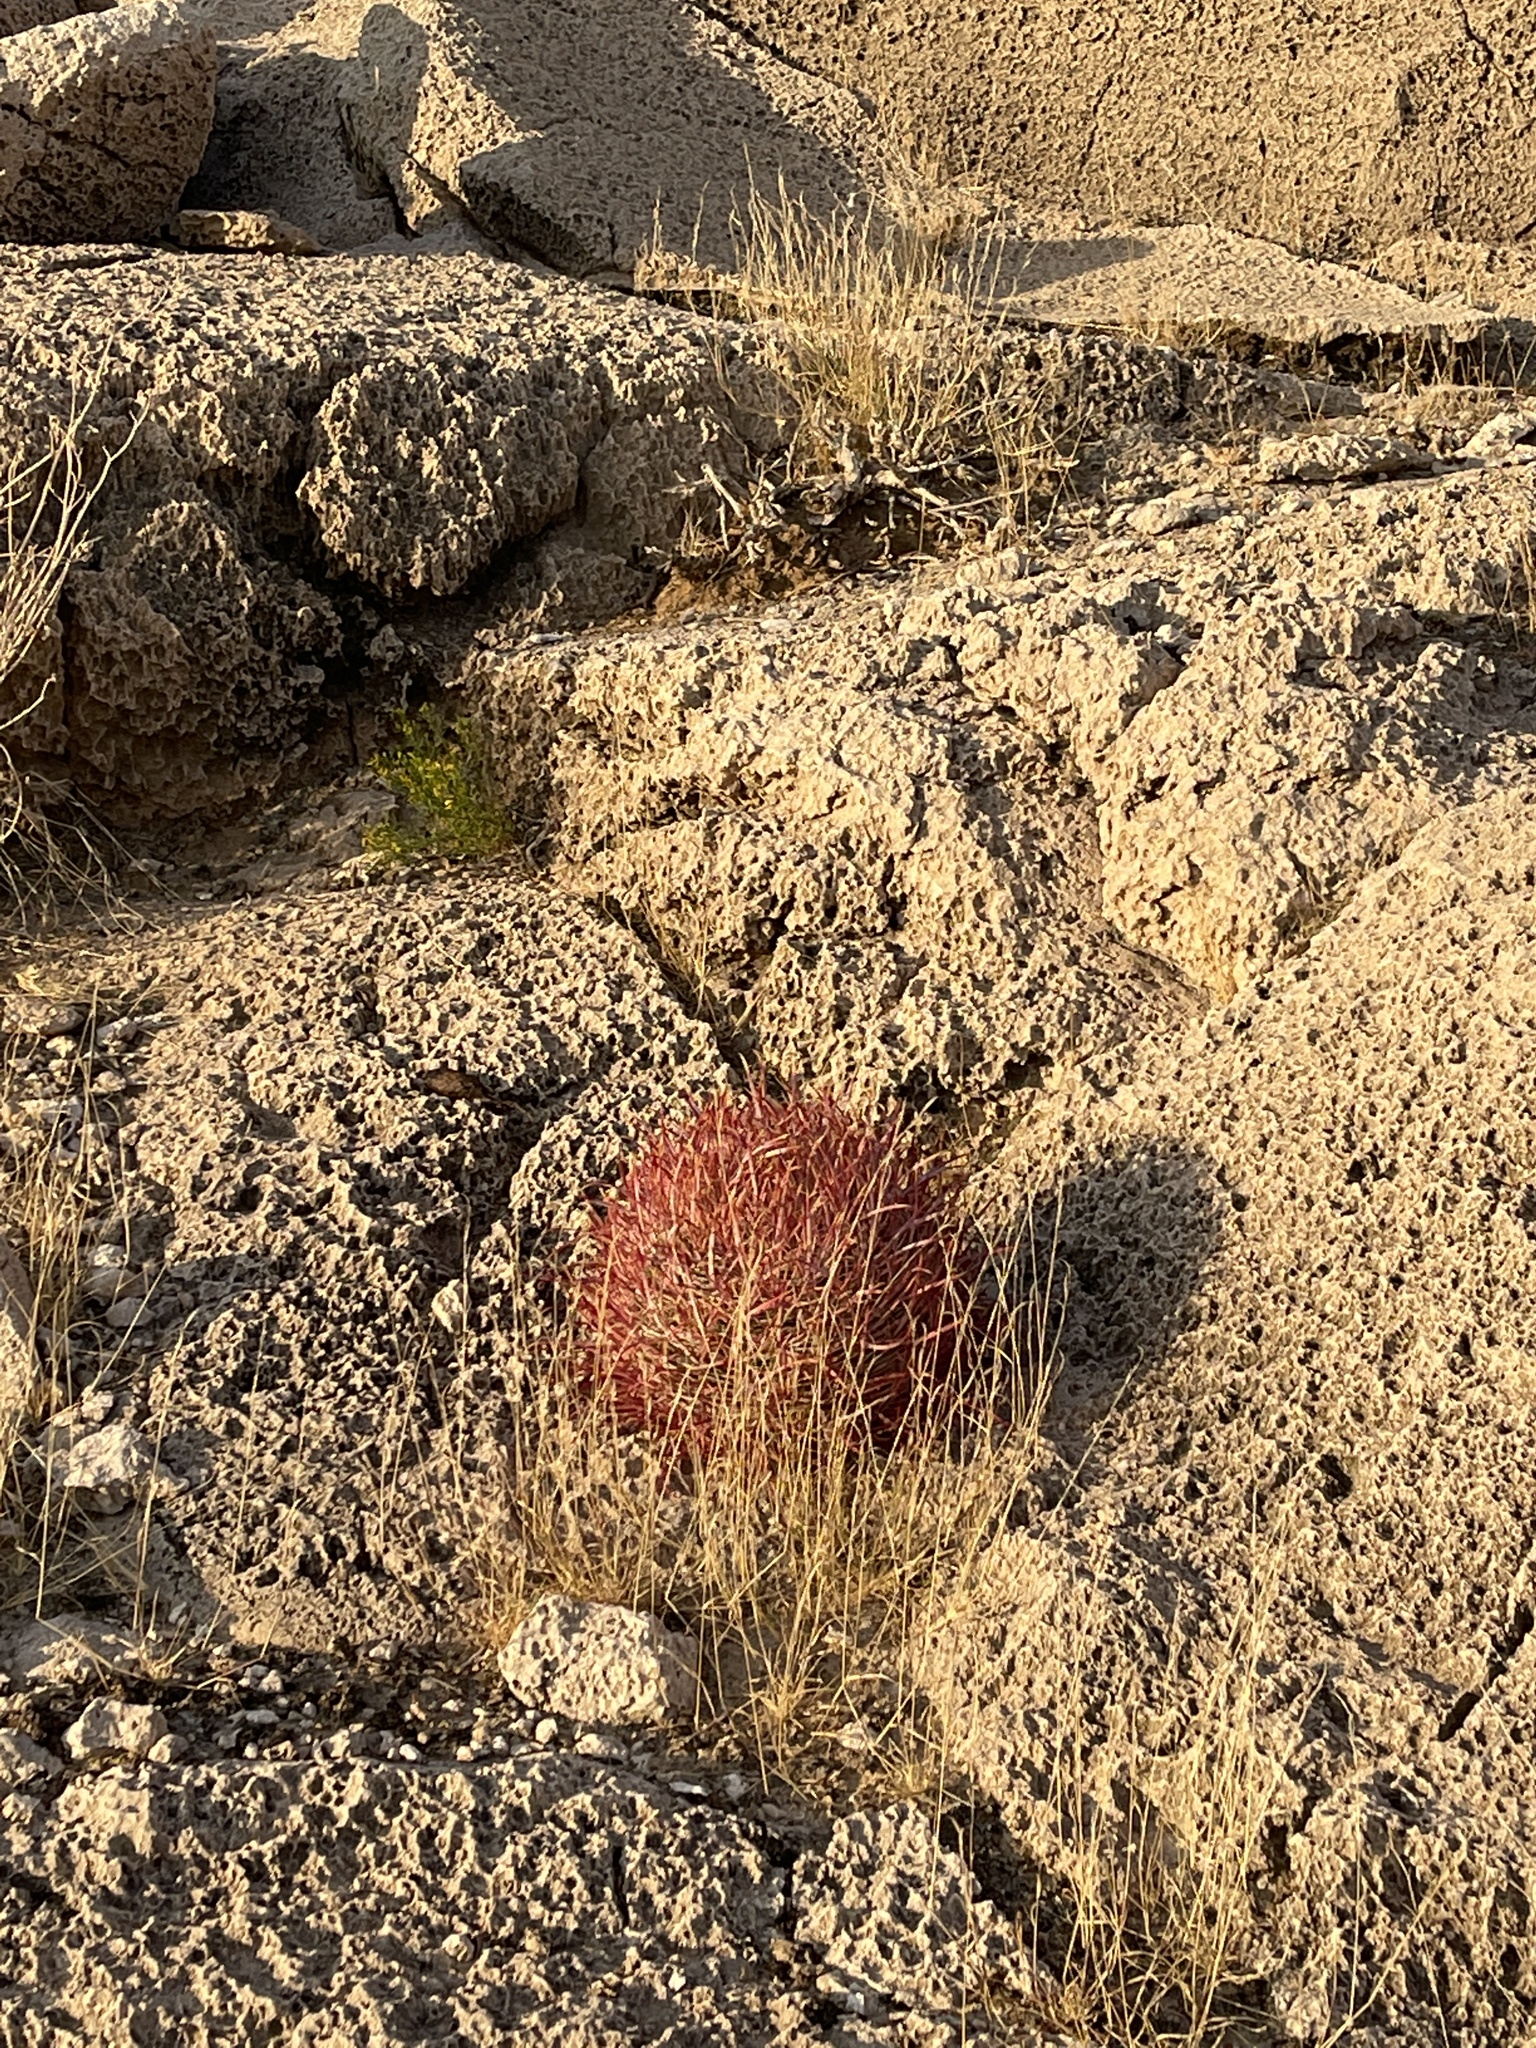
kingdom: Plantae
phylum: Tracheophyta
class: Magnoliopsida
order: Caryophyllales
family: Cactaceae
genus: Ferocactus
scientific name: Ferocactus cylindraceus
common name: California barrel cactus
